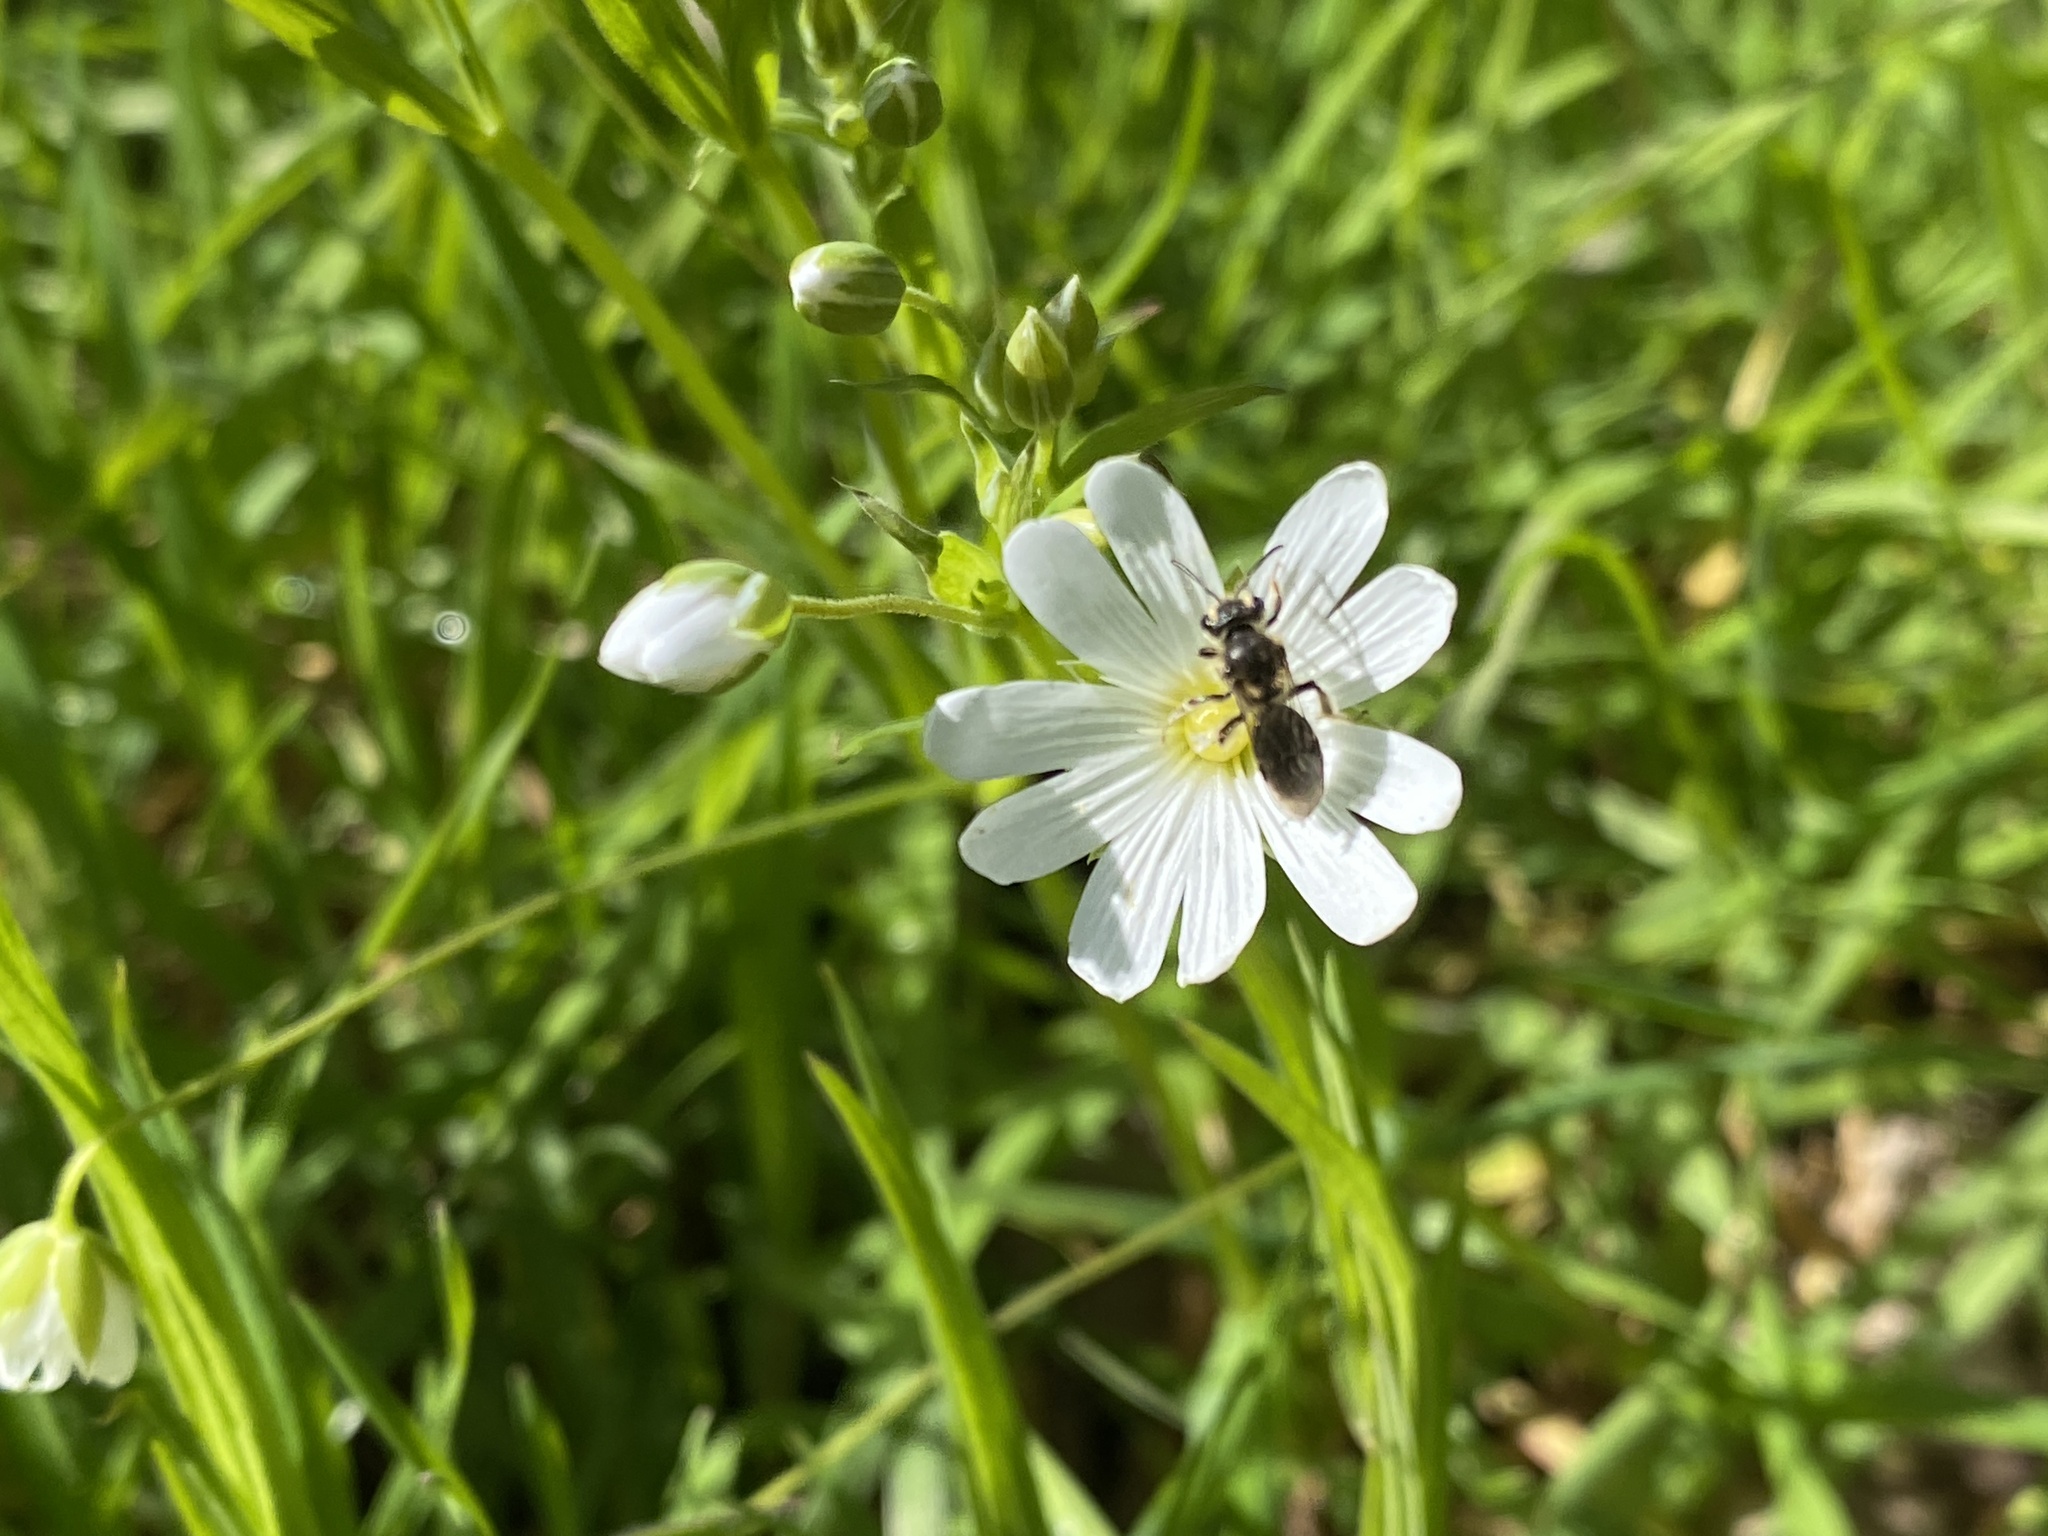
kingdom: Plantae
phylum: Tracheophyta
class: Magnoliopsida
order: Caryophyllales
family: Caryophyllaceae
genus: Rabelera
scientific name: Rabelera holostea
